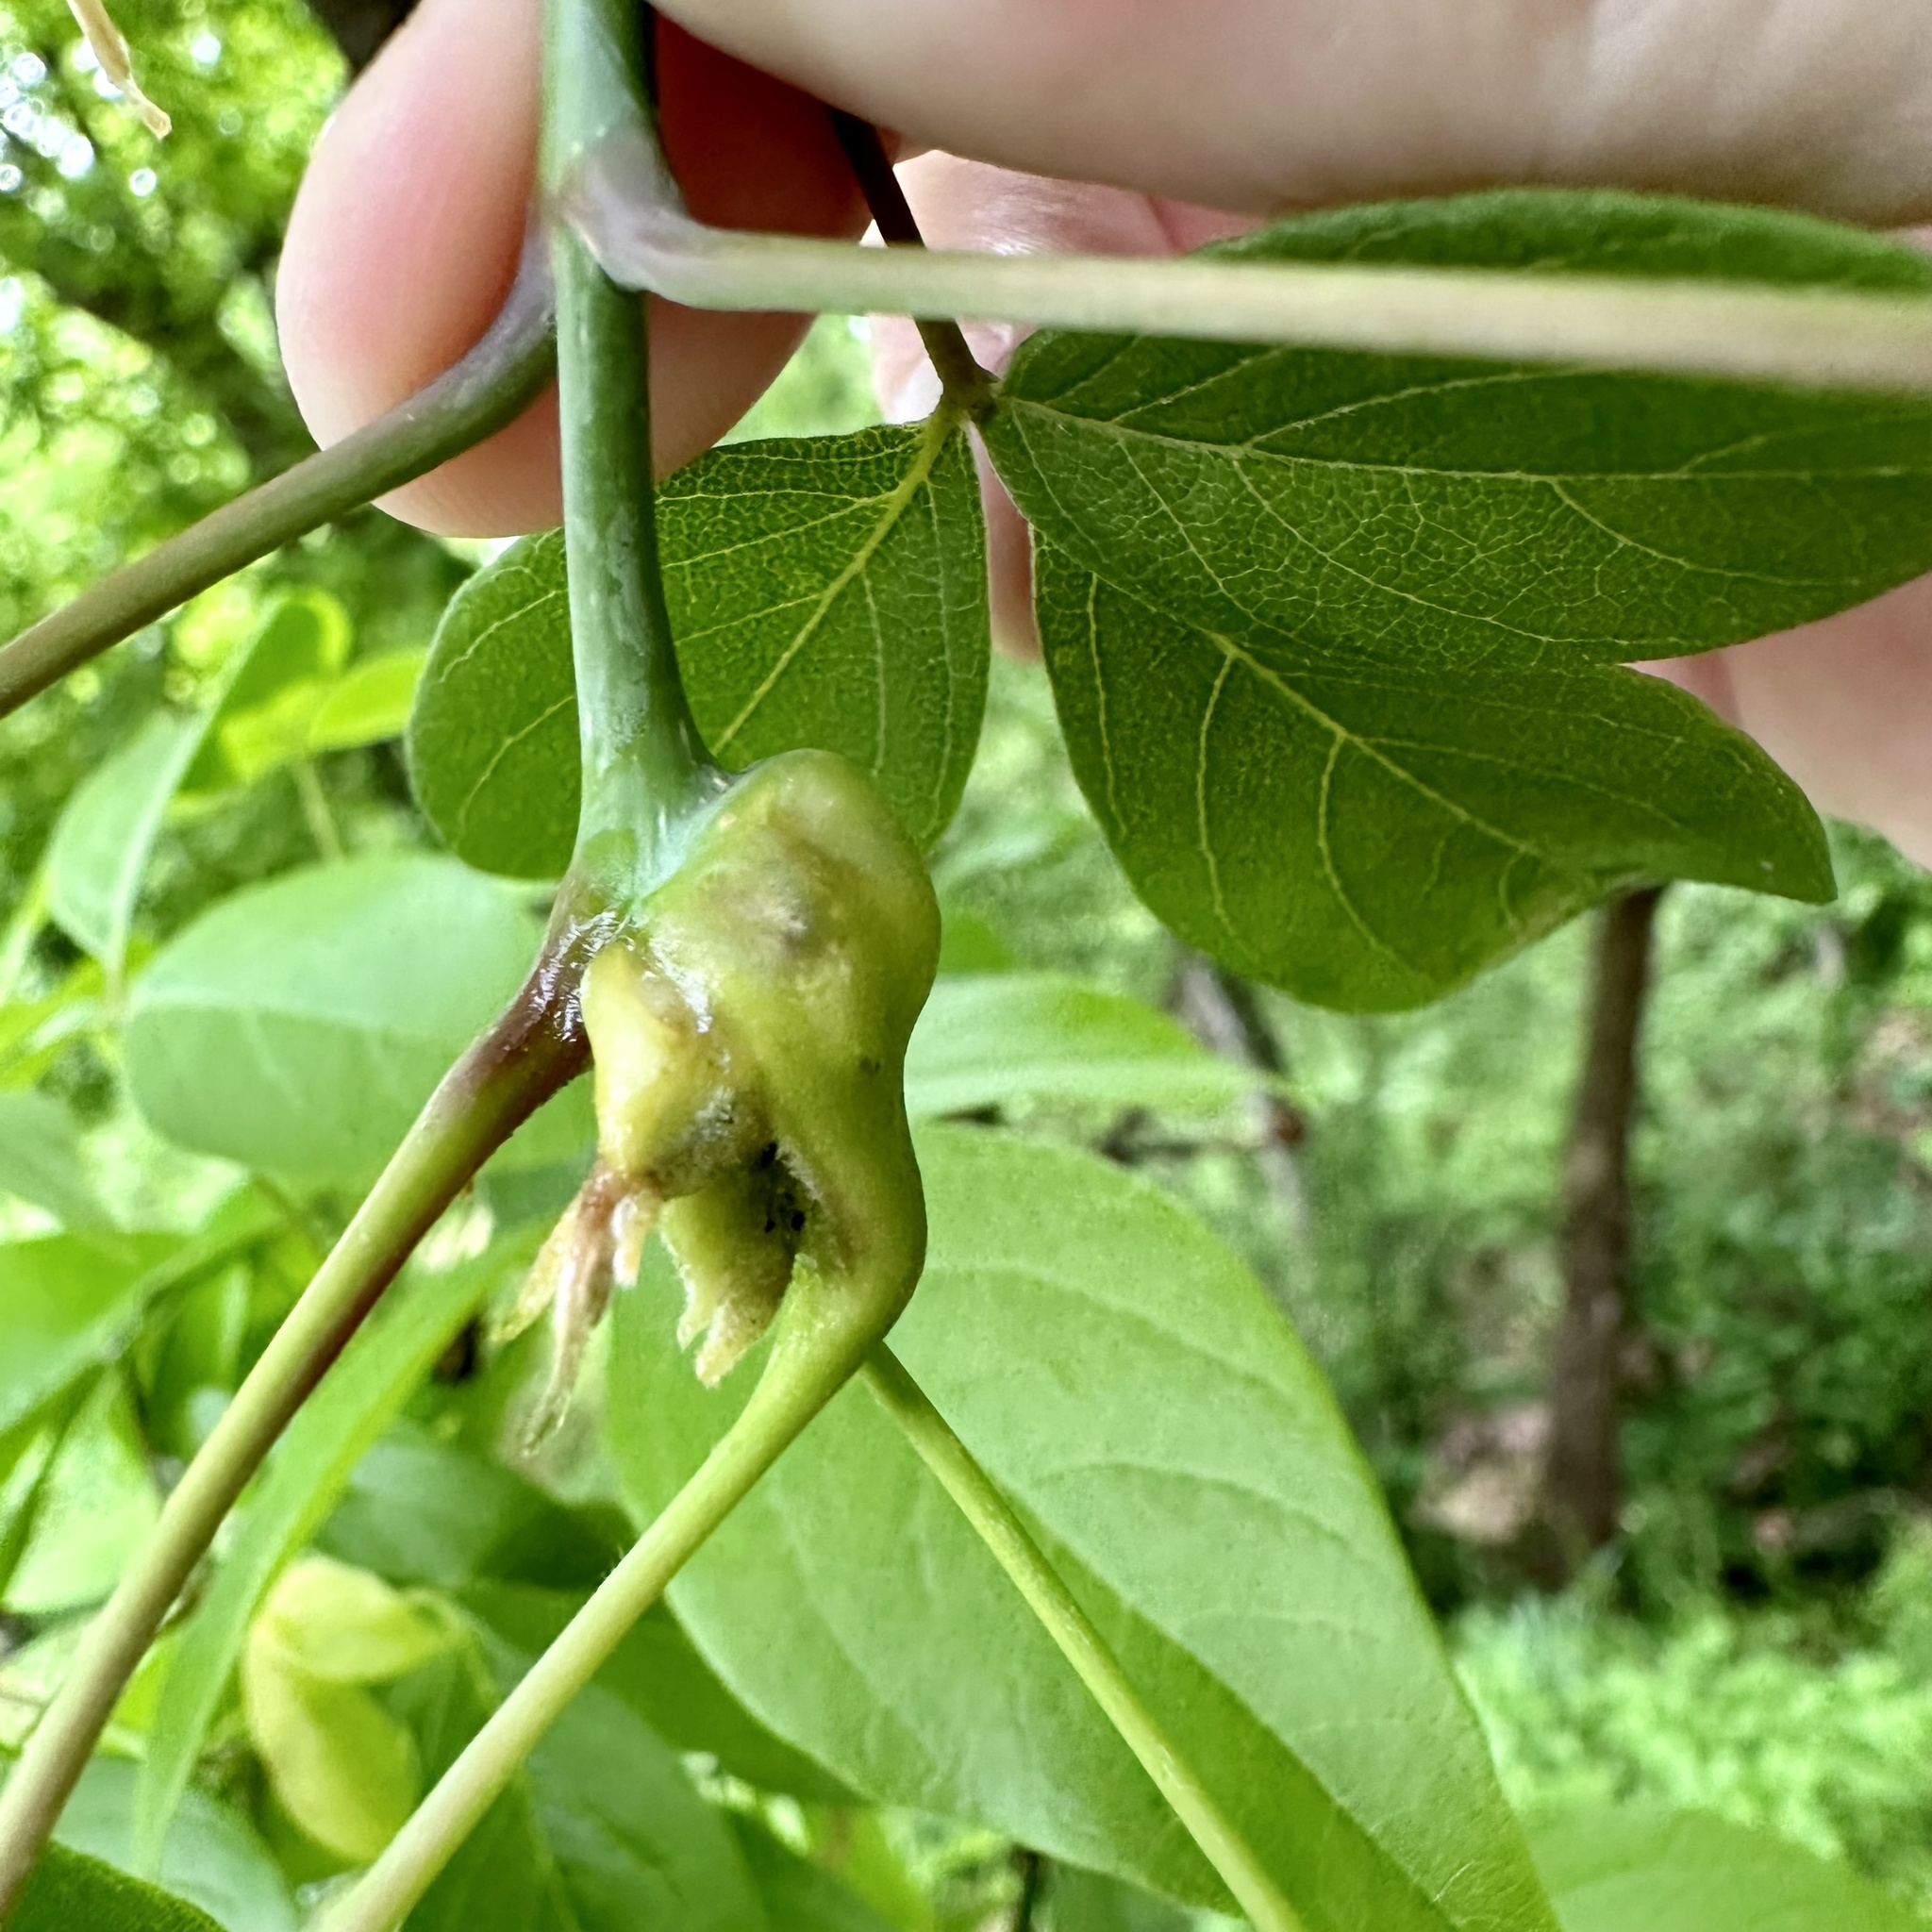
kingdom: Animalia
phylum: Arthropoda
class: Insecta
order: Diptera
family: Cecidomyiidae
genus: Contarinia
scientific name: Contarinia negundinis
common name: Boxelder budgall midge
